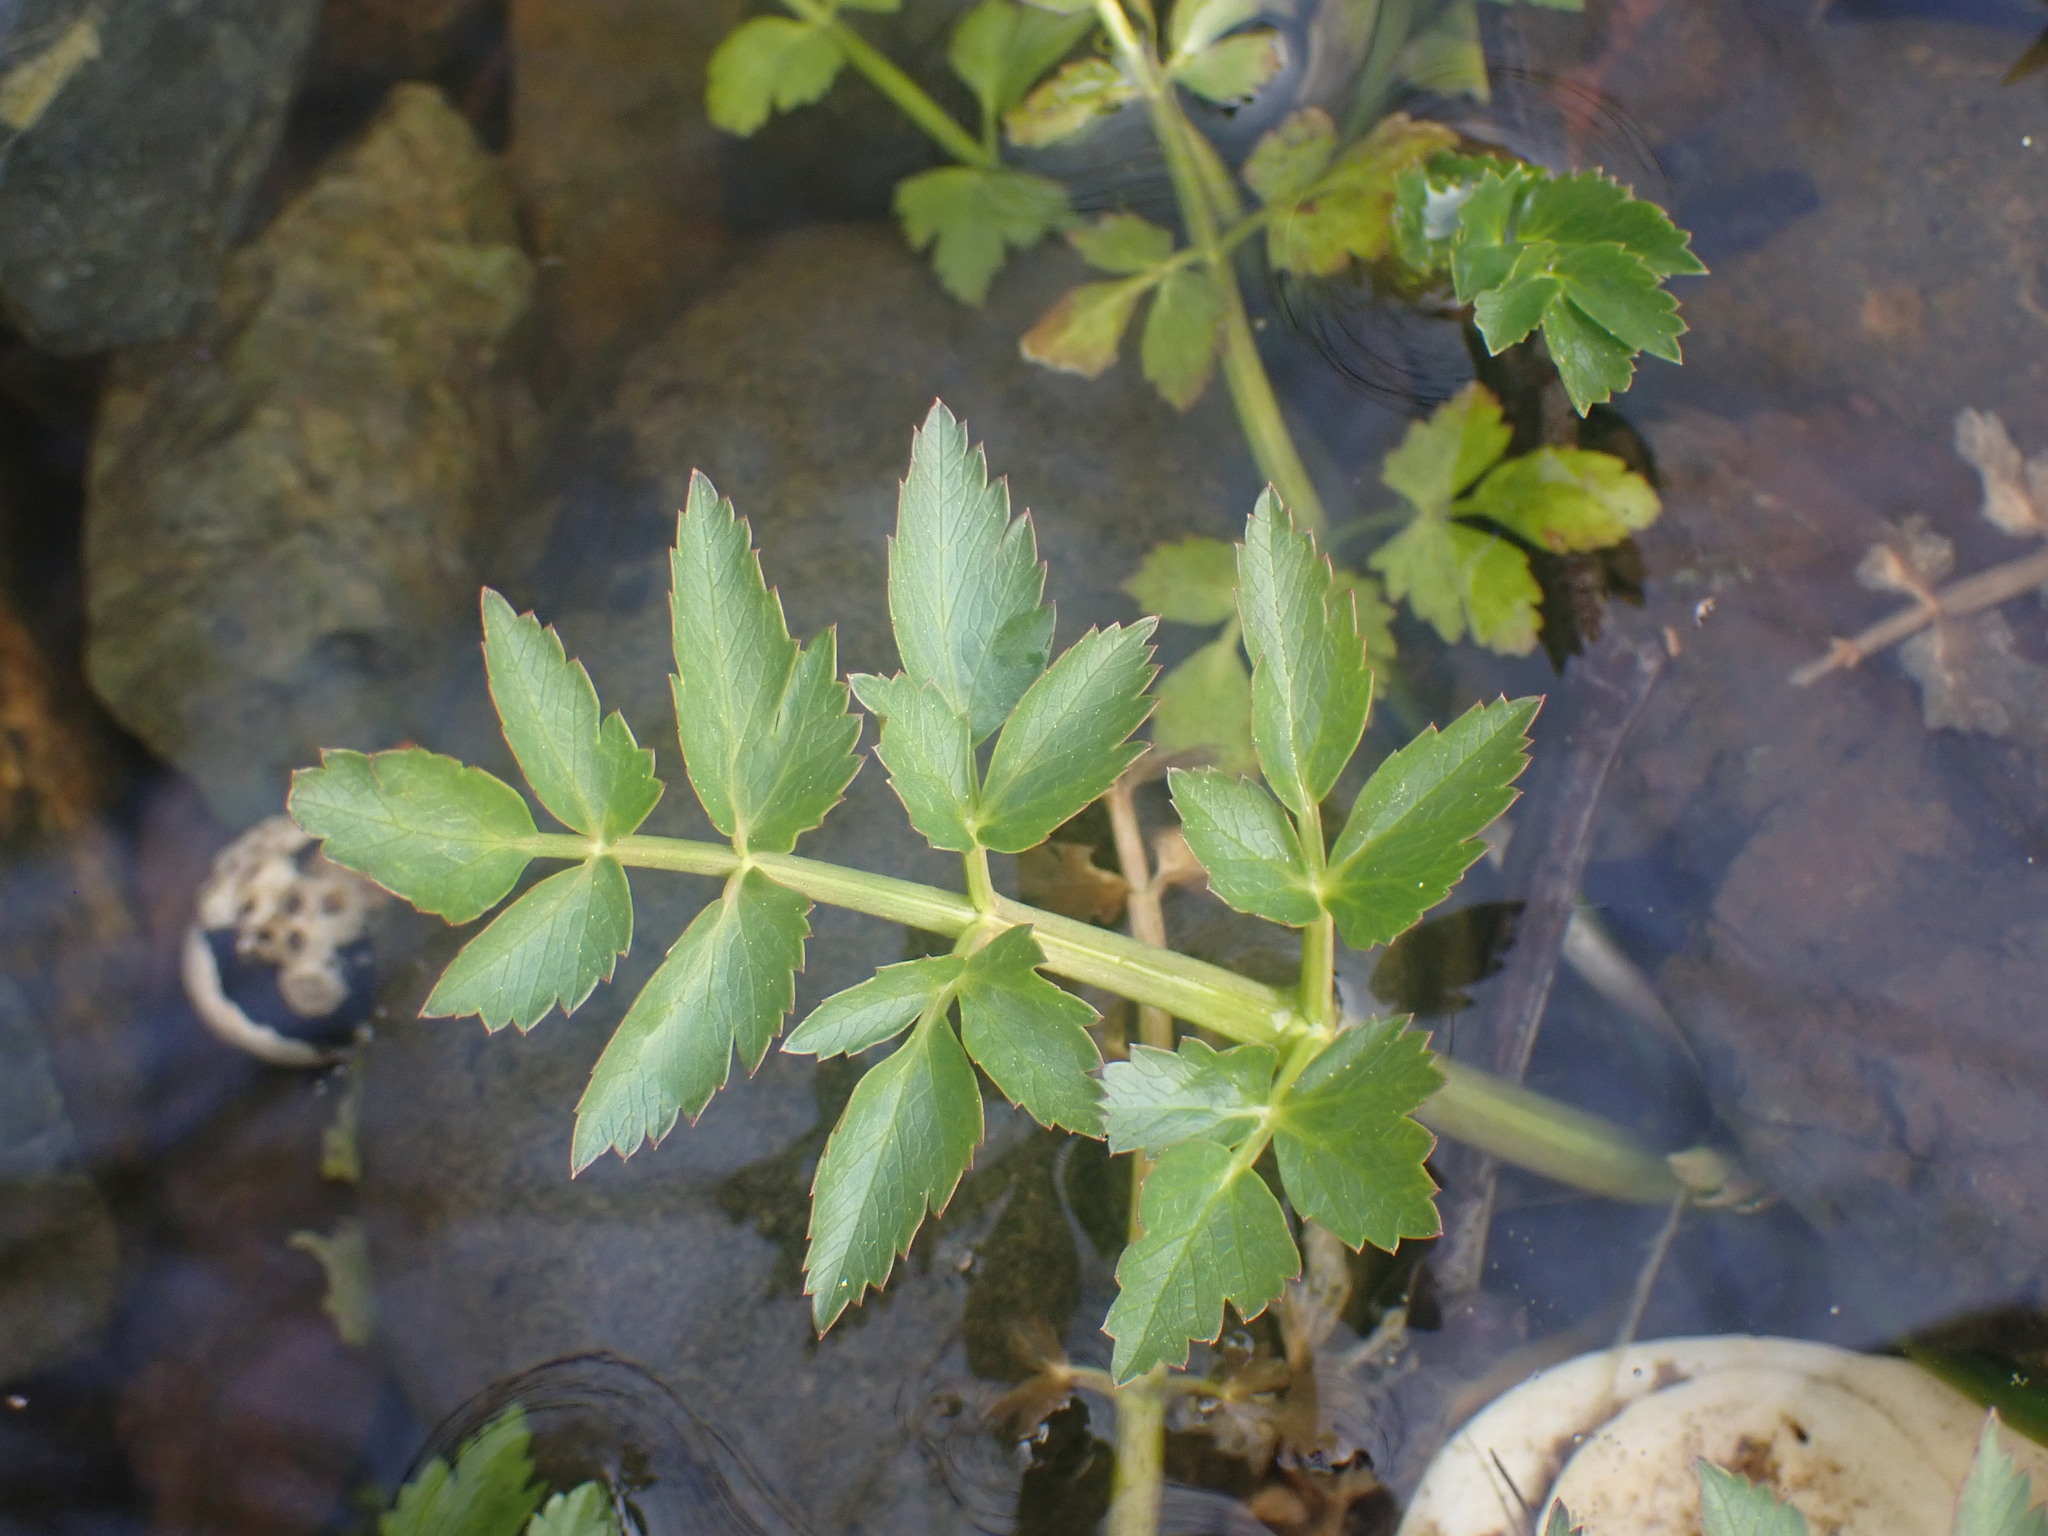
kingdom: Plantae
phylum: Tracheophyta
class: Magnoliopsida
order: Apiales
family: Apiaceae
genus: Oenanthe
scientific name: Oenanthe sarmentosa
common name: American water-parsley
